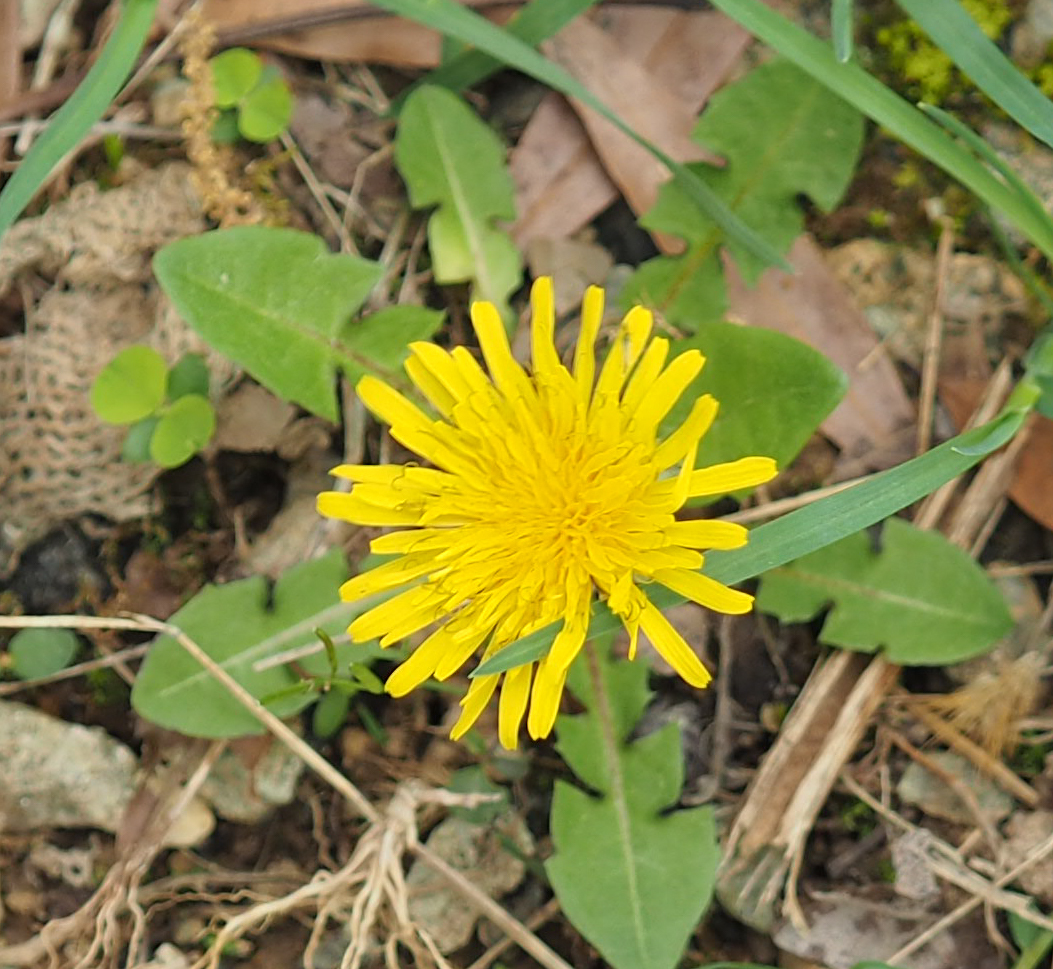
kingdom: Plantae
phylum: Tracheophyta
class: Magnoliopsida
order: Asterales
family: Asteraceae
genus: Taraxacum
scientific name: Taraxacum officinale
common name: Common dandelion
